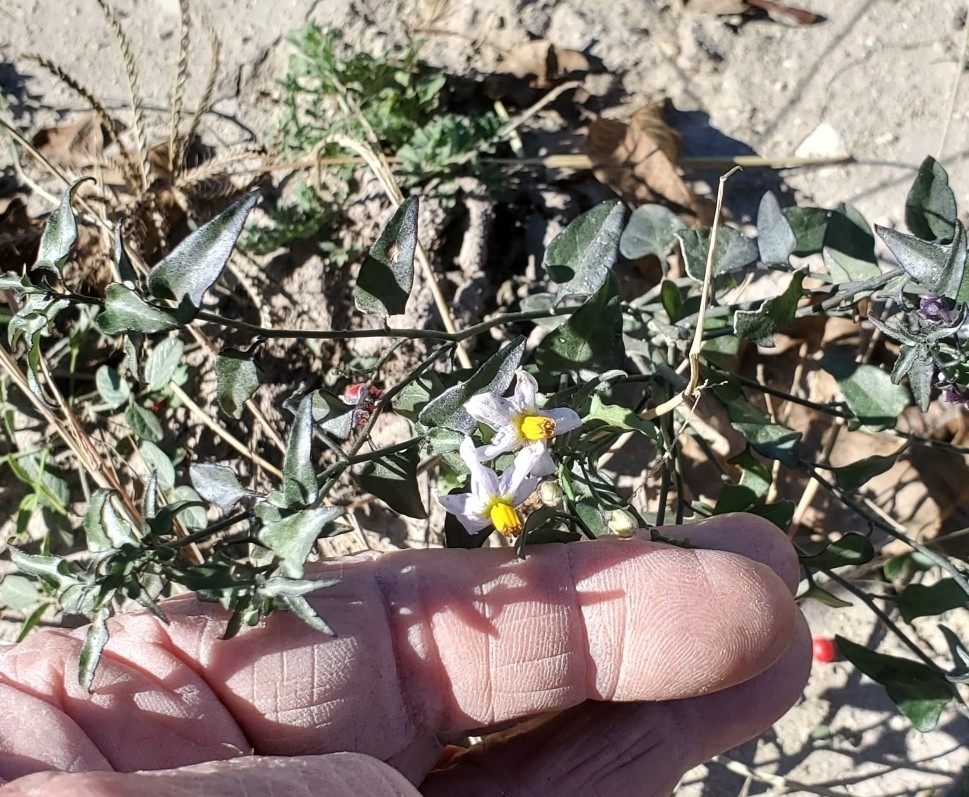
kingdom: Plantae
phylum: Tracheophyta
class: Magnoliopsida
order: Solanales
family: Solanaceae
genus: Solanum
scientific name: Solanum triquetrum
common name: Texas nightshade
